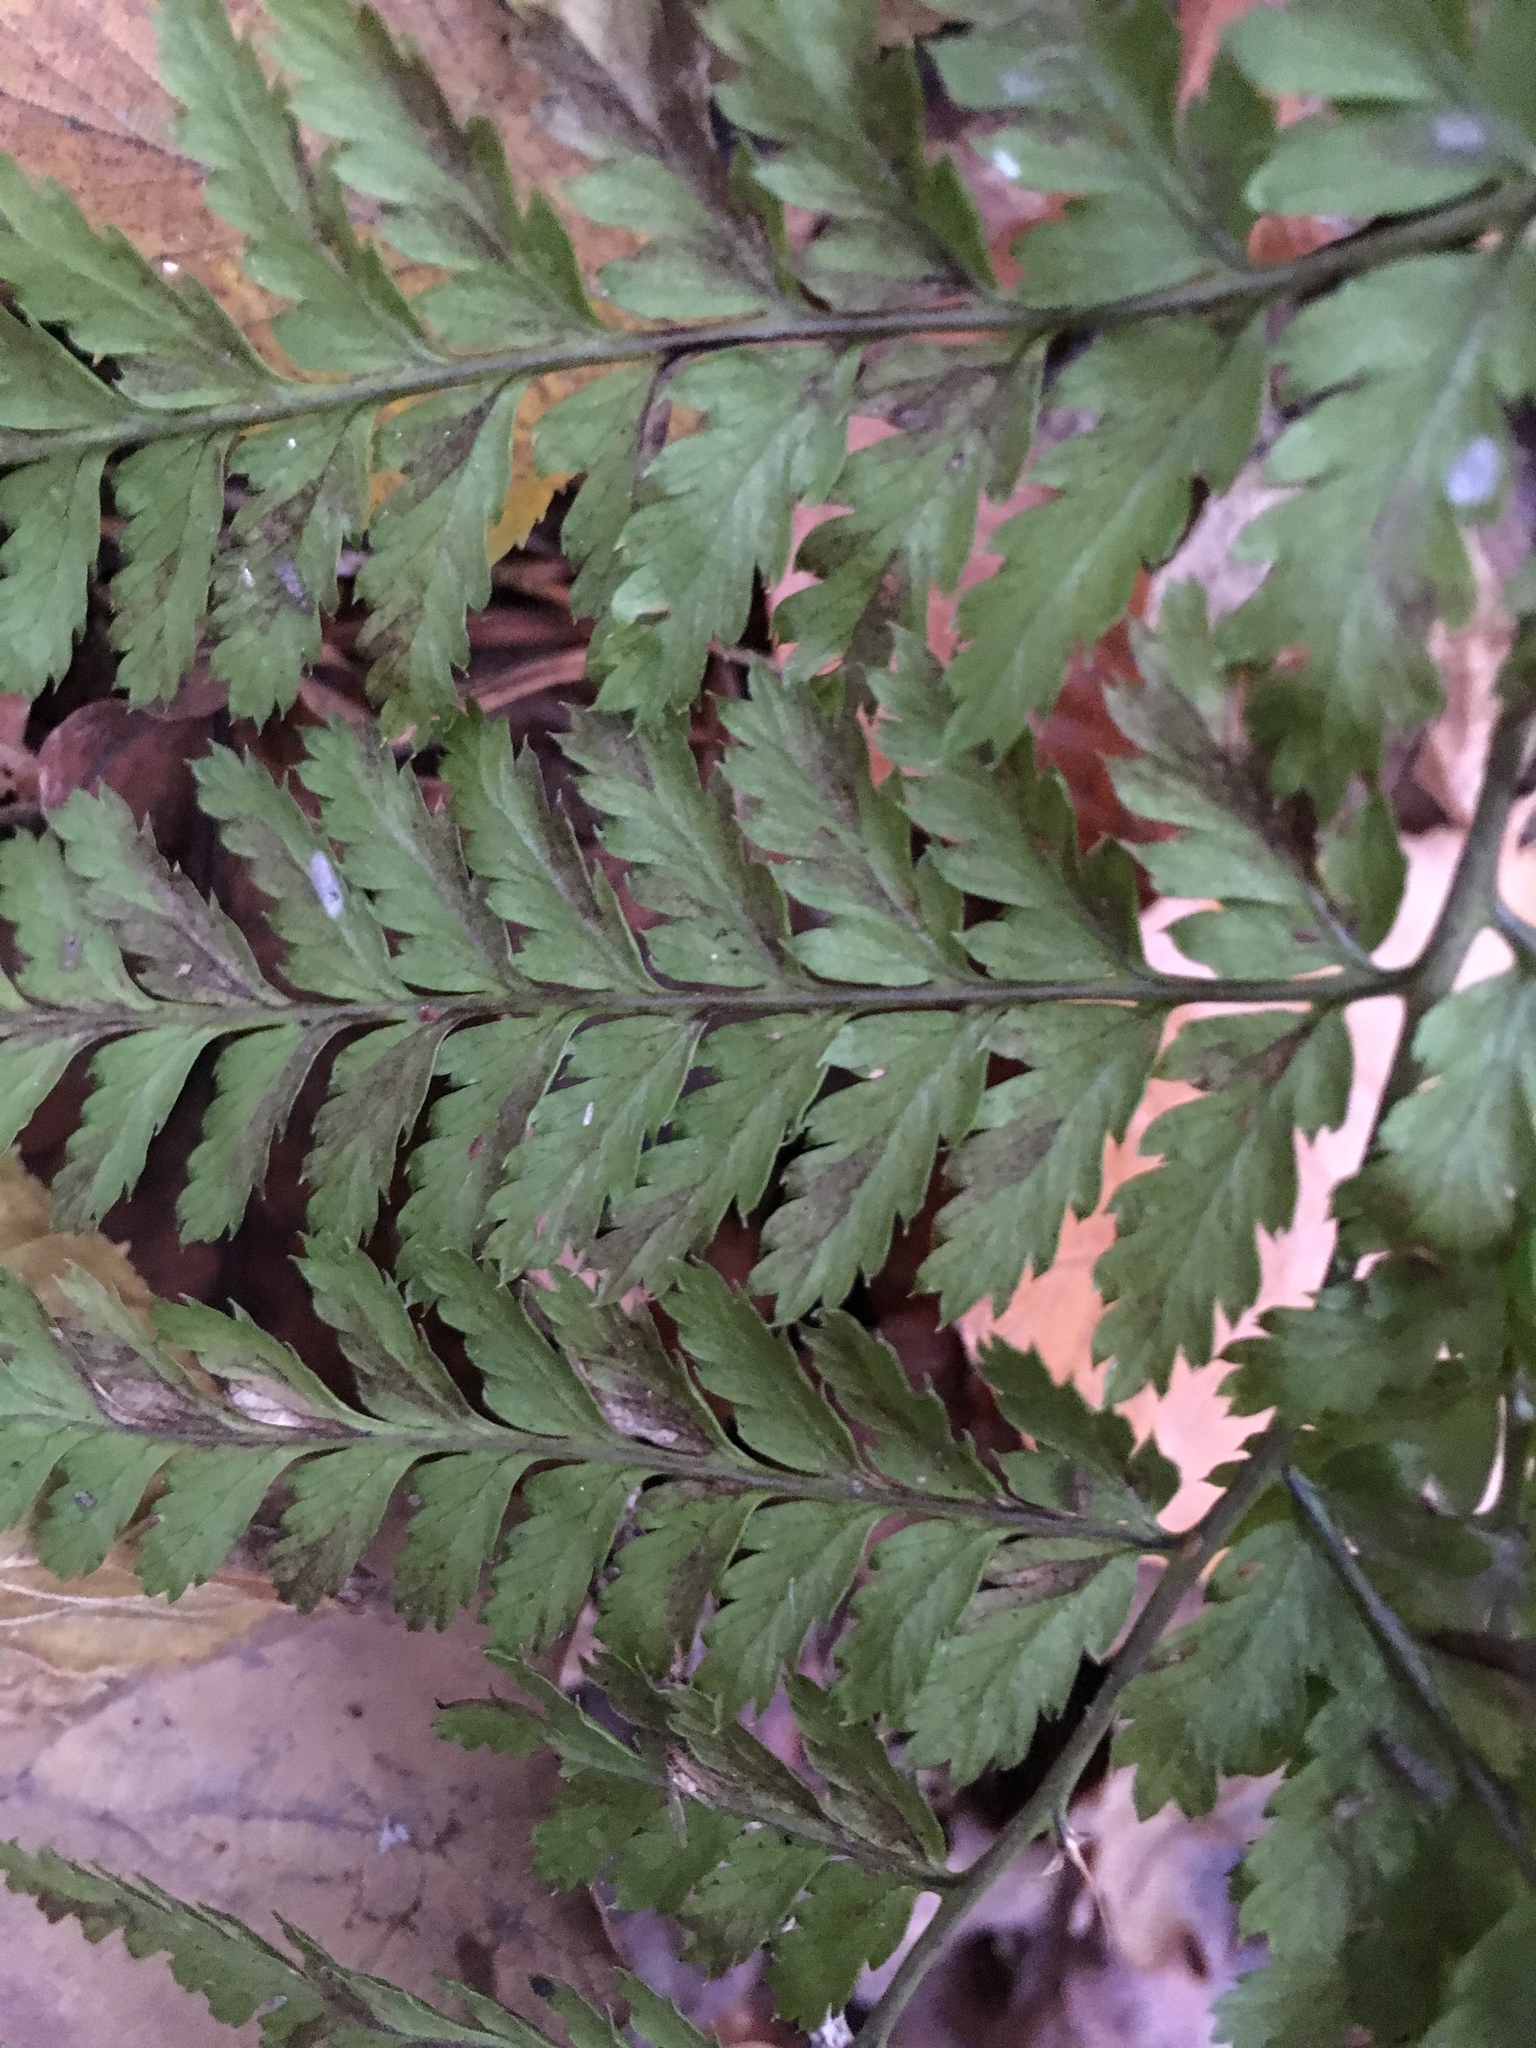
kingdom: Plantae
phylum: Tracheophyta
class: Polypodiopsida
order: Polypodiales
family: Dryopteridaceae
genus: Dryopteris
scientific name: Dryopteris carthusiana
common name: Narrow buckler-fern
